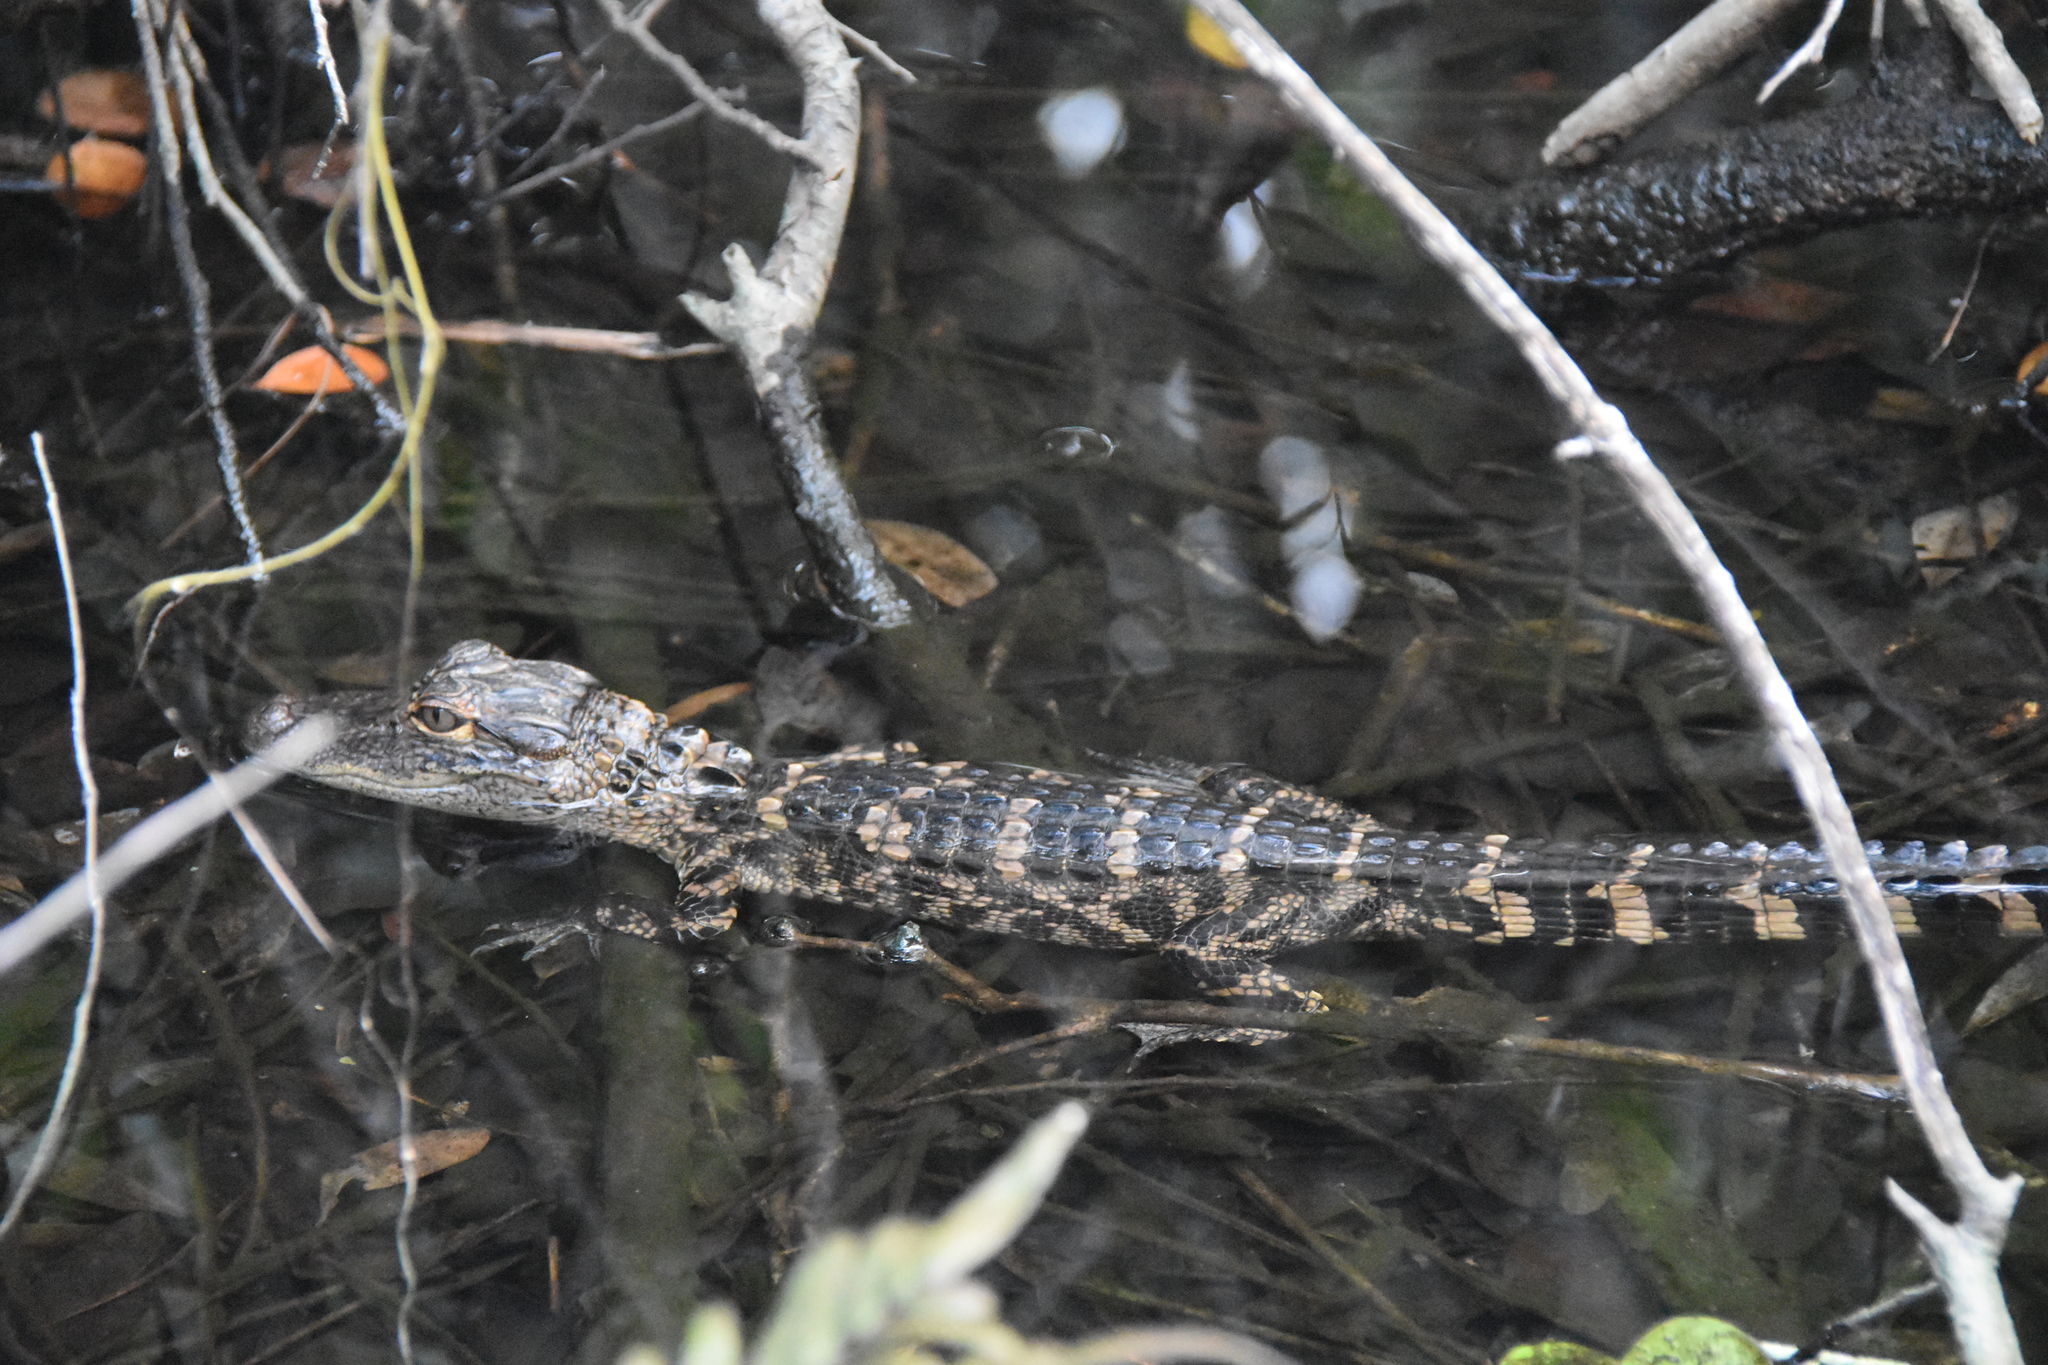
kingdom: Animalia
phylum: Chordata
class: Crocodylia
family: Alligatoridae
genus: Alligator
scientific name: Alligator mississippiensis
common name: American alligator
